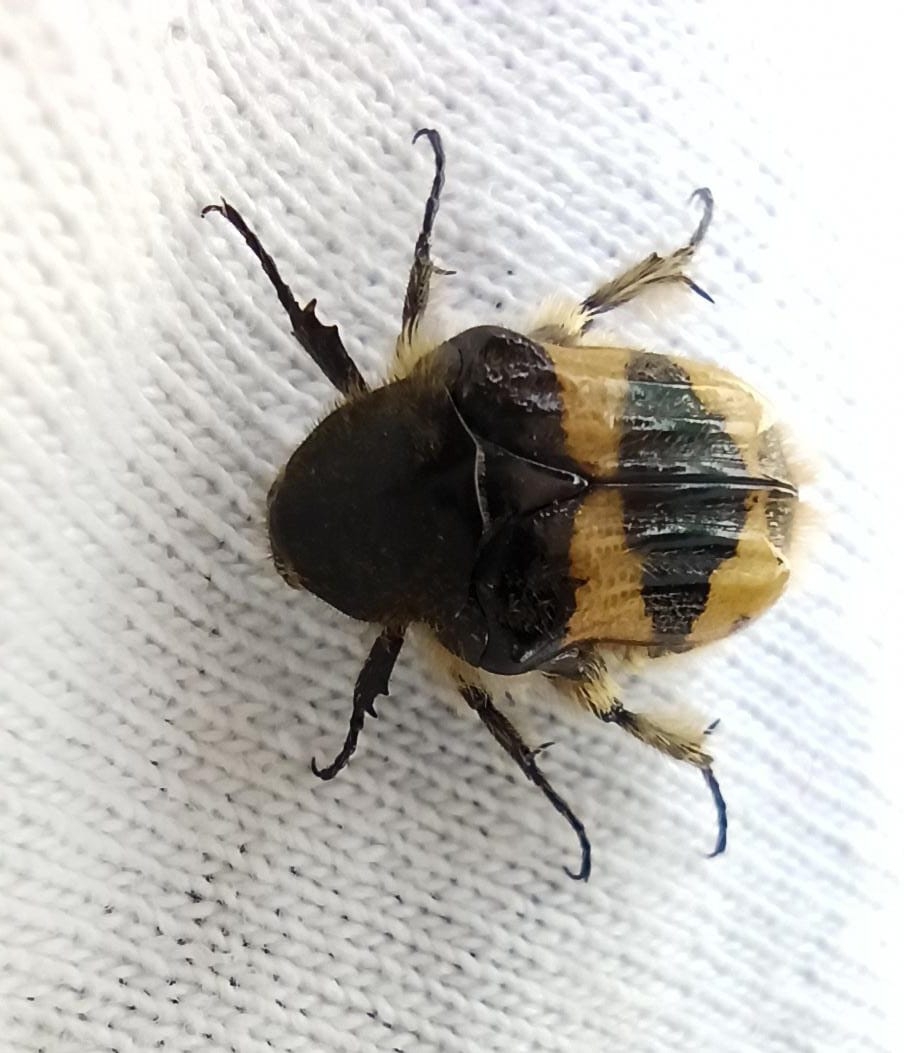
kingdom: Animalia
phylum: Arthropoda
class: Insecta
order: Coleoptera
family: Scarabaeidae
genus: Euphoria
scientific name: Euphoria basalis
